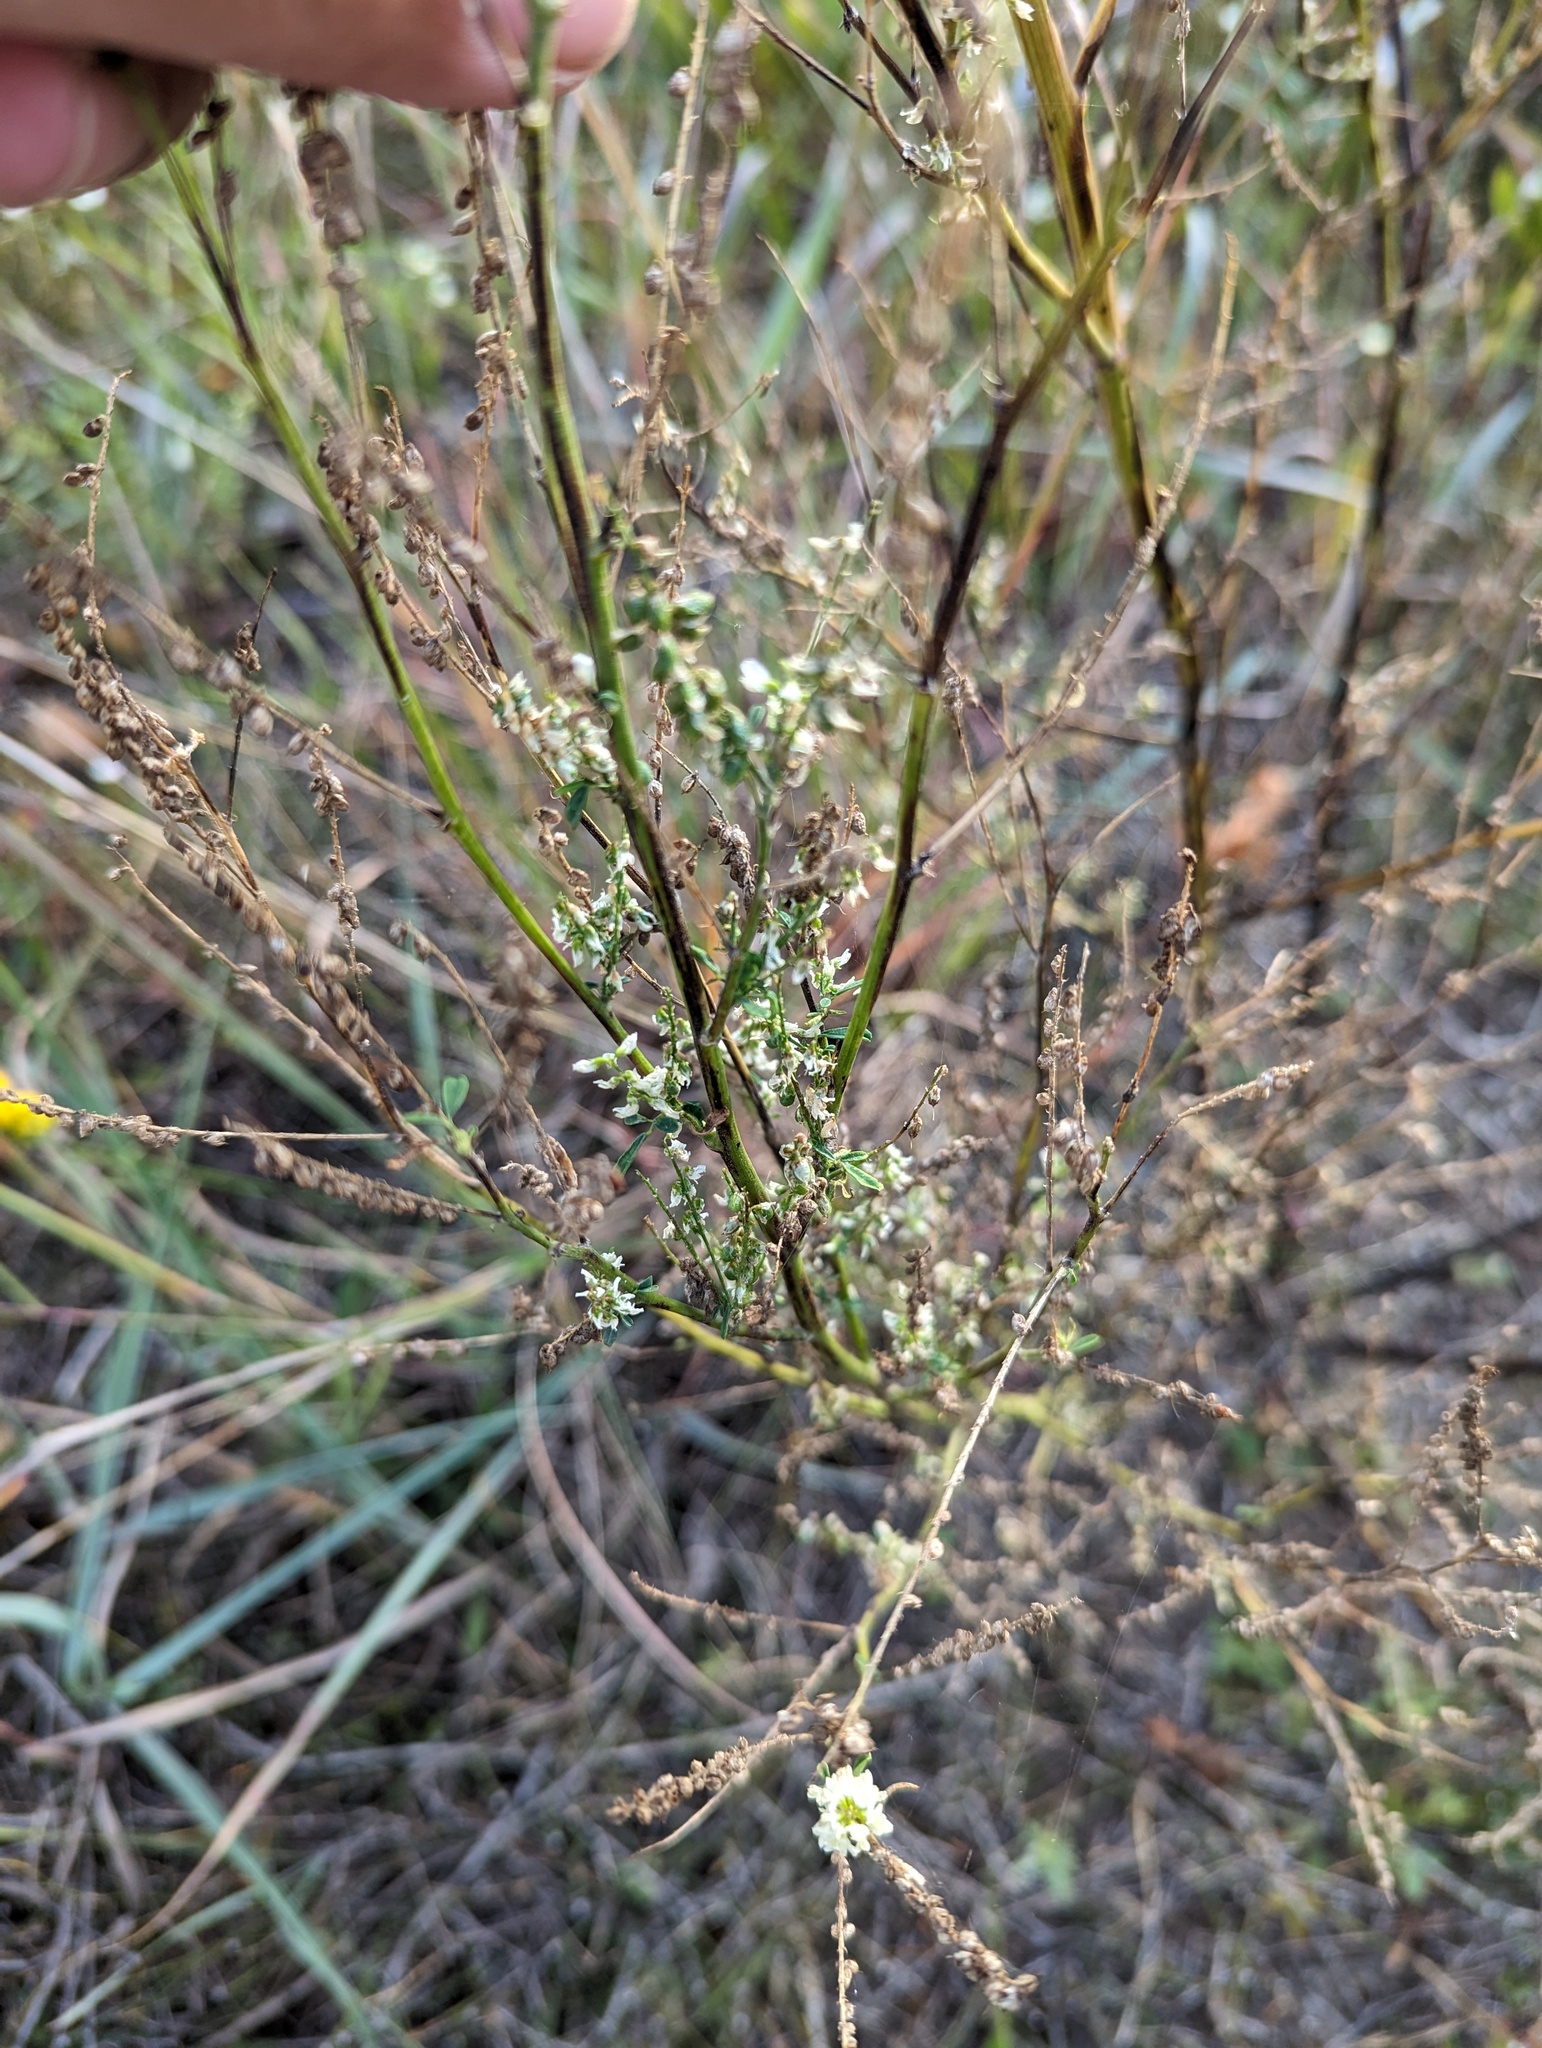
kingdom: Plantae
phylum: Tracheophyta
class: Magnoliopsida
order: Fabales
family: Fabaceae
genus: Melilotus
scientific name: Melilotus albus
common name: White melilot
